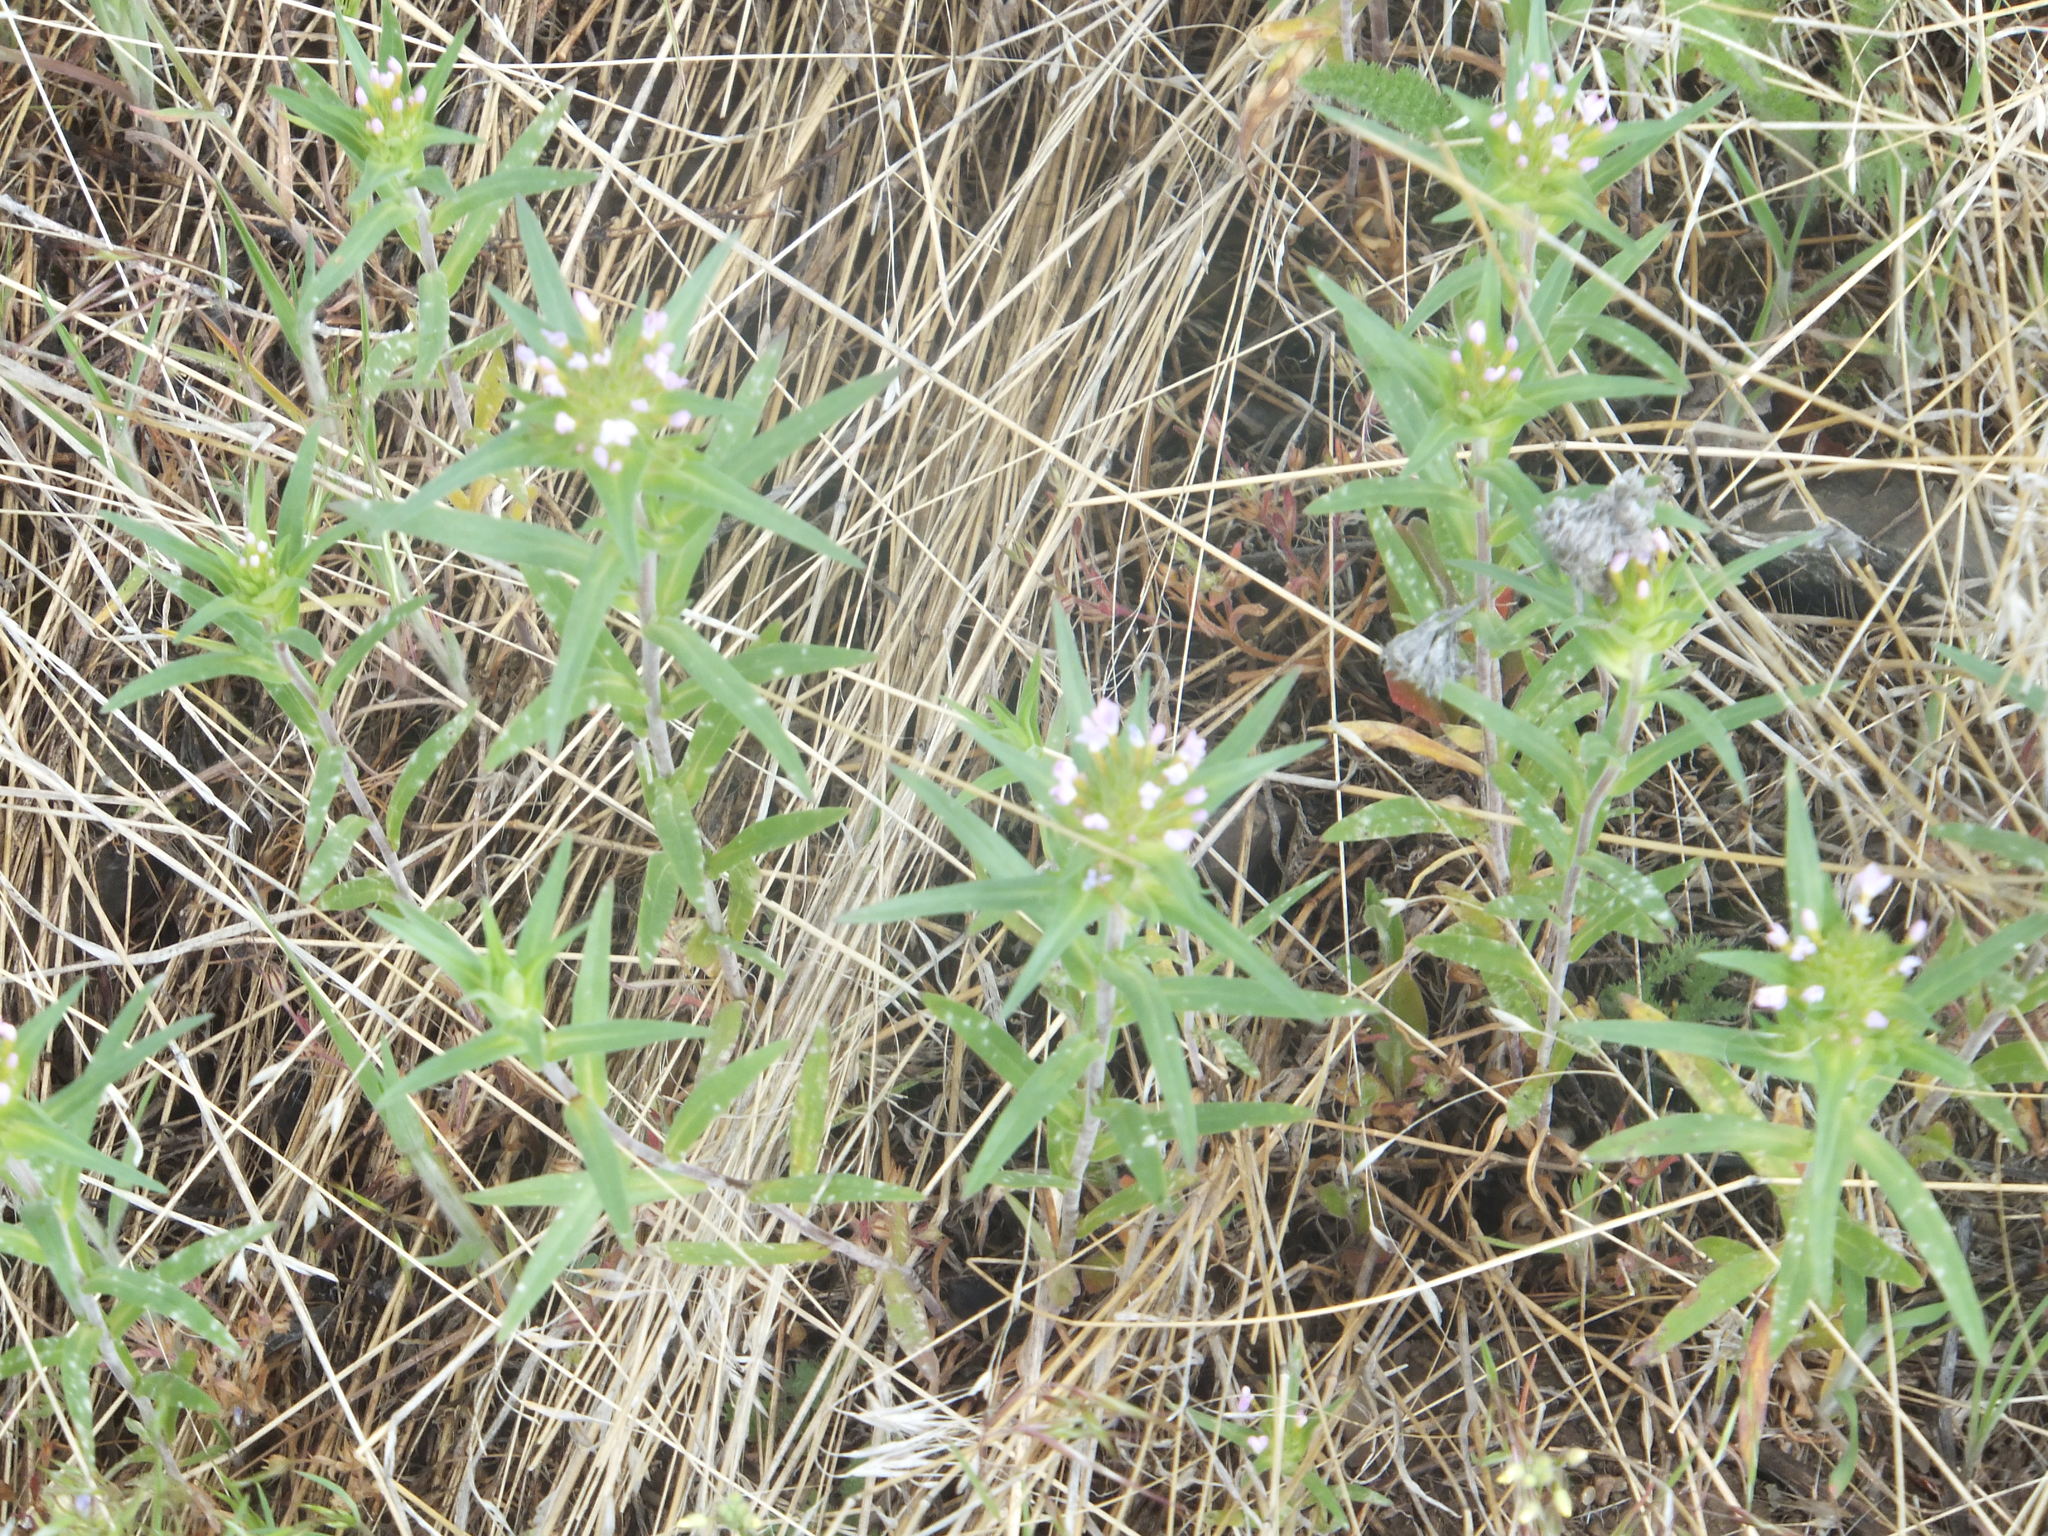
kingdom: Plantae
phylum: Tracheophyta
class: Magnoliopsida
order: Ericales
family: Polemoniaceae
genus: Collomia
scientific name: Collomia linearis
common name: Tiny trumpet
